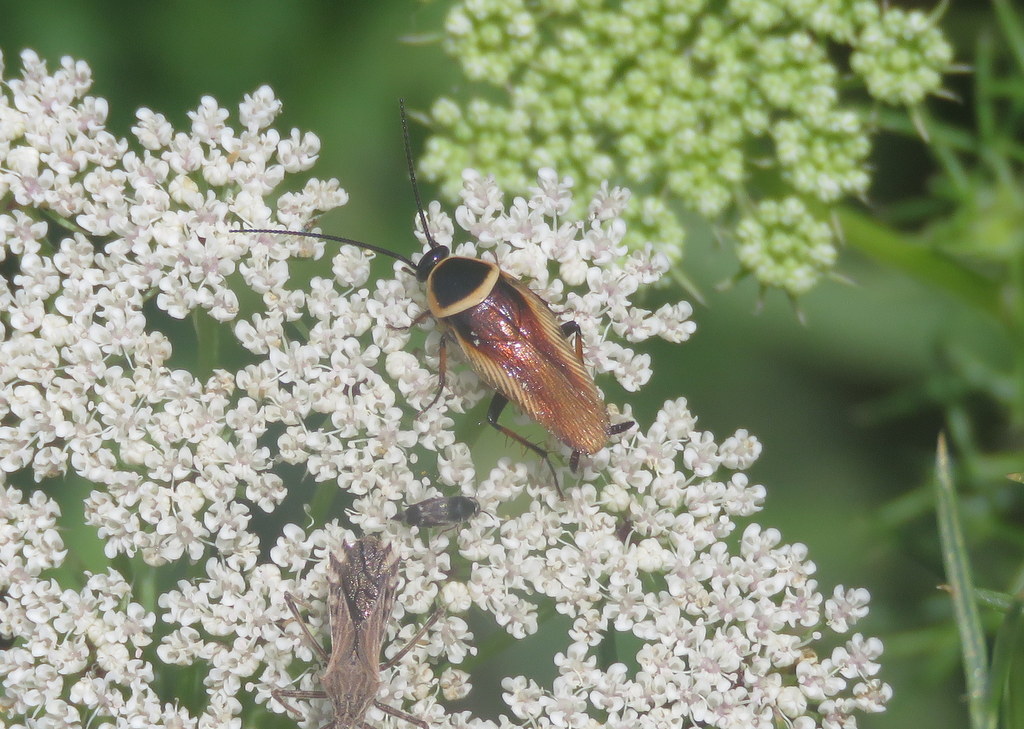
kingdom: Animalia
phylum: Arthropoda
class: Insecta
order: Blattodea
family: Ectobiidae
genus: Pseudomops
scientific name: Pseudomops neglectus
